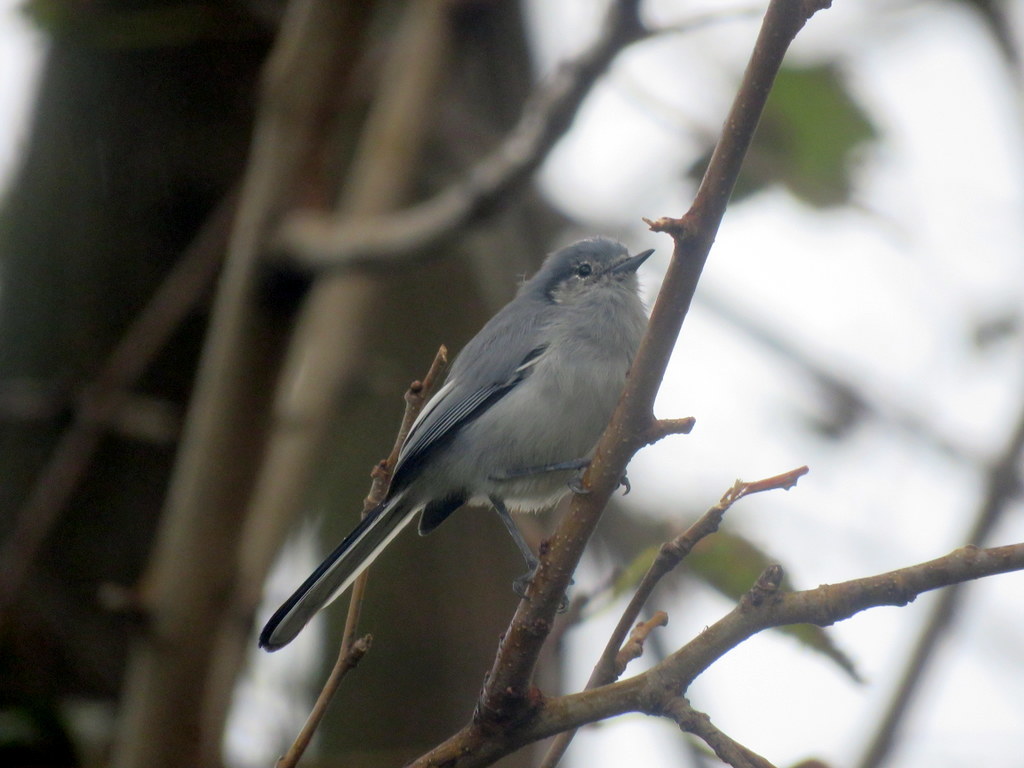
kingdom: Animalia
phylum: Chordata
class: Aves
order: Passeriformes
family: Polioptilidae
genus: Polioptila
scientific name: Polioptila dumicola
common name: Masked gnatcatcher
